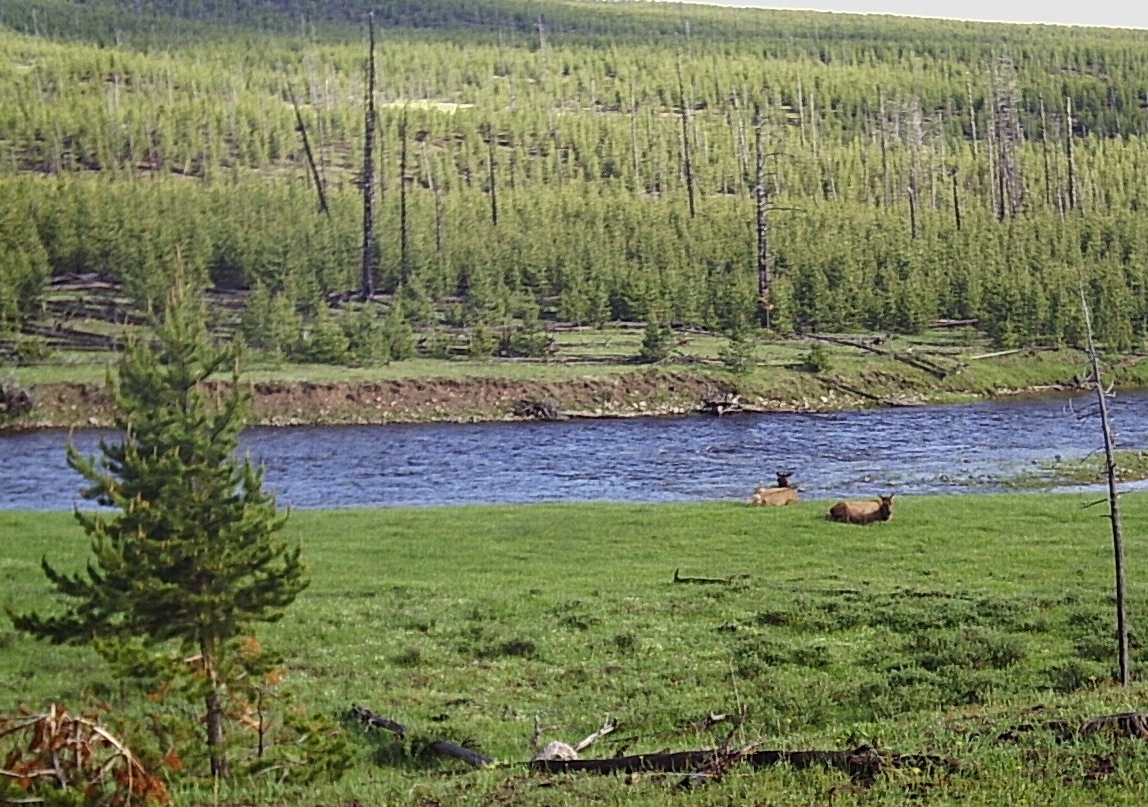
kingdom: Animalia
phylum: Chordata
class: Mammalia
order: Artiodactyla
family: Cervidae
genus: Cervus
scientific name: Cervus elaphus
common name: Red deer
